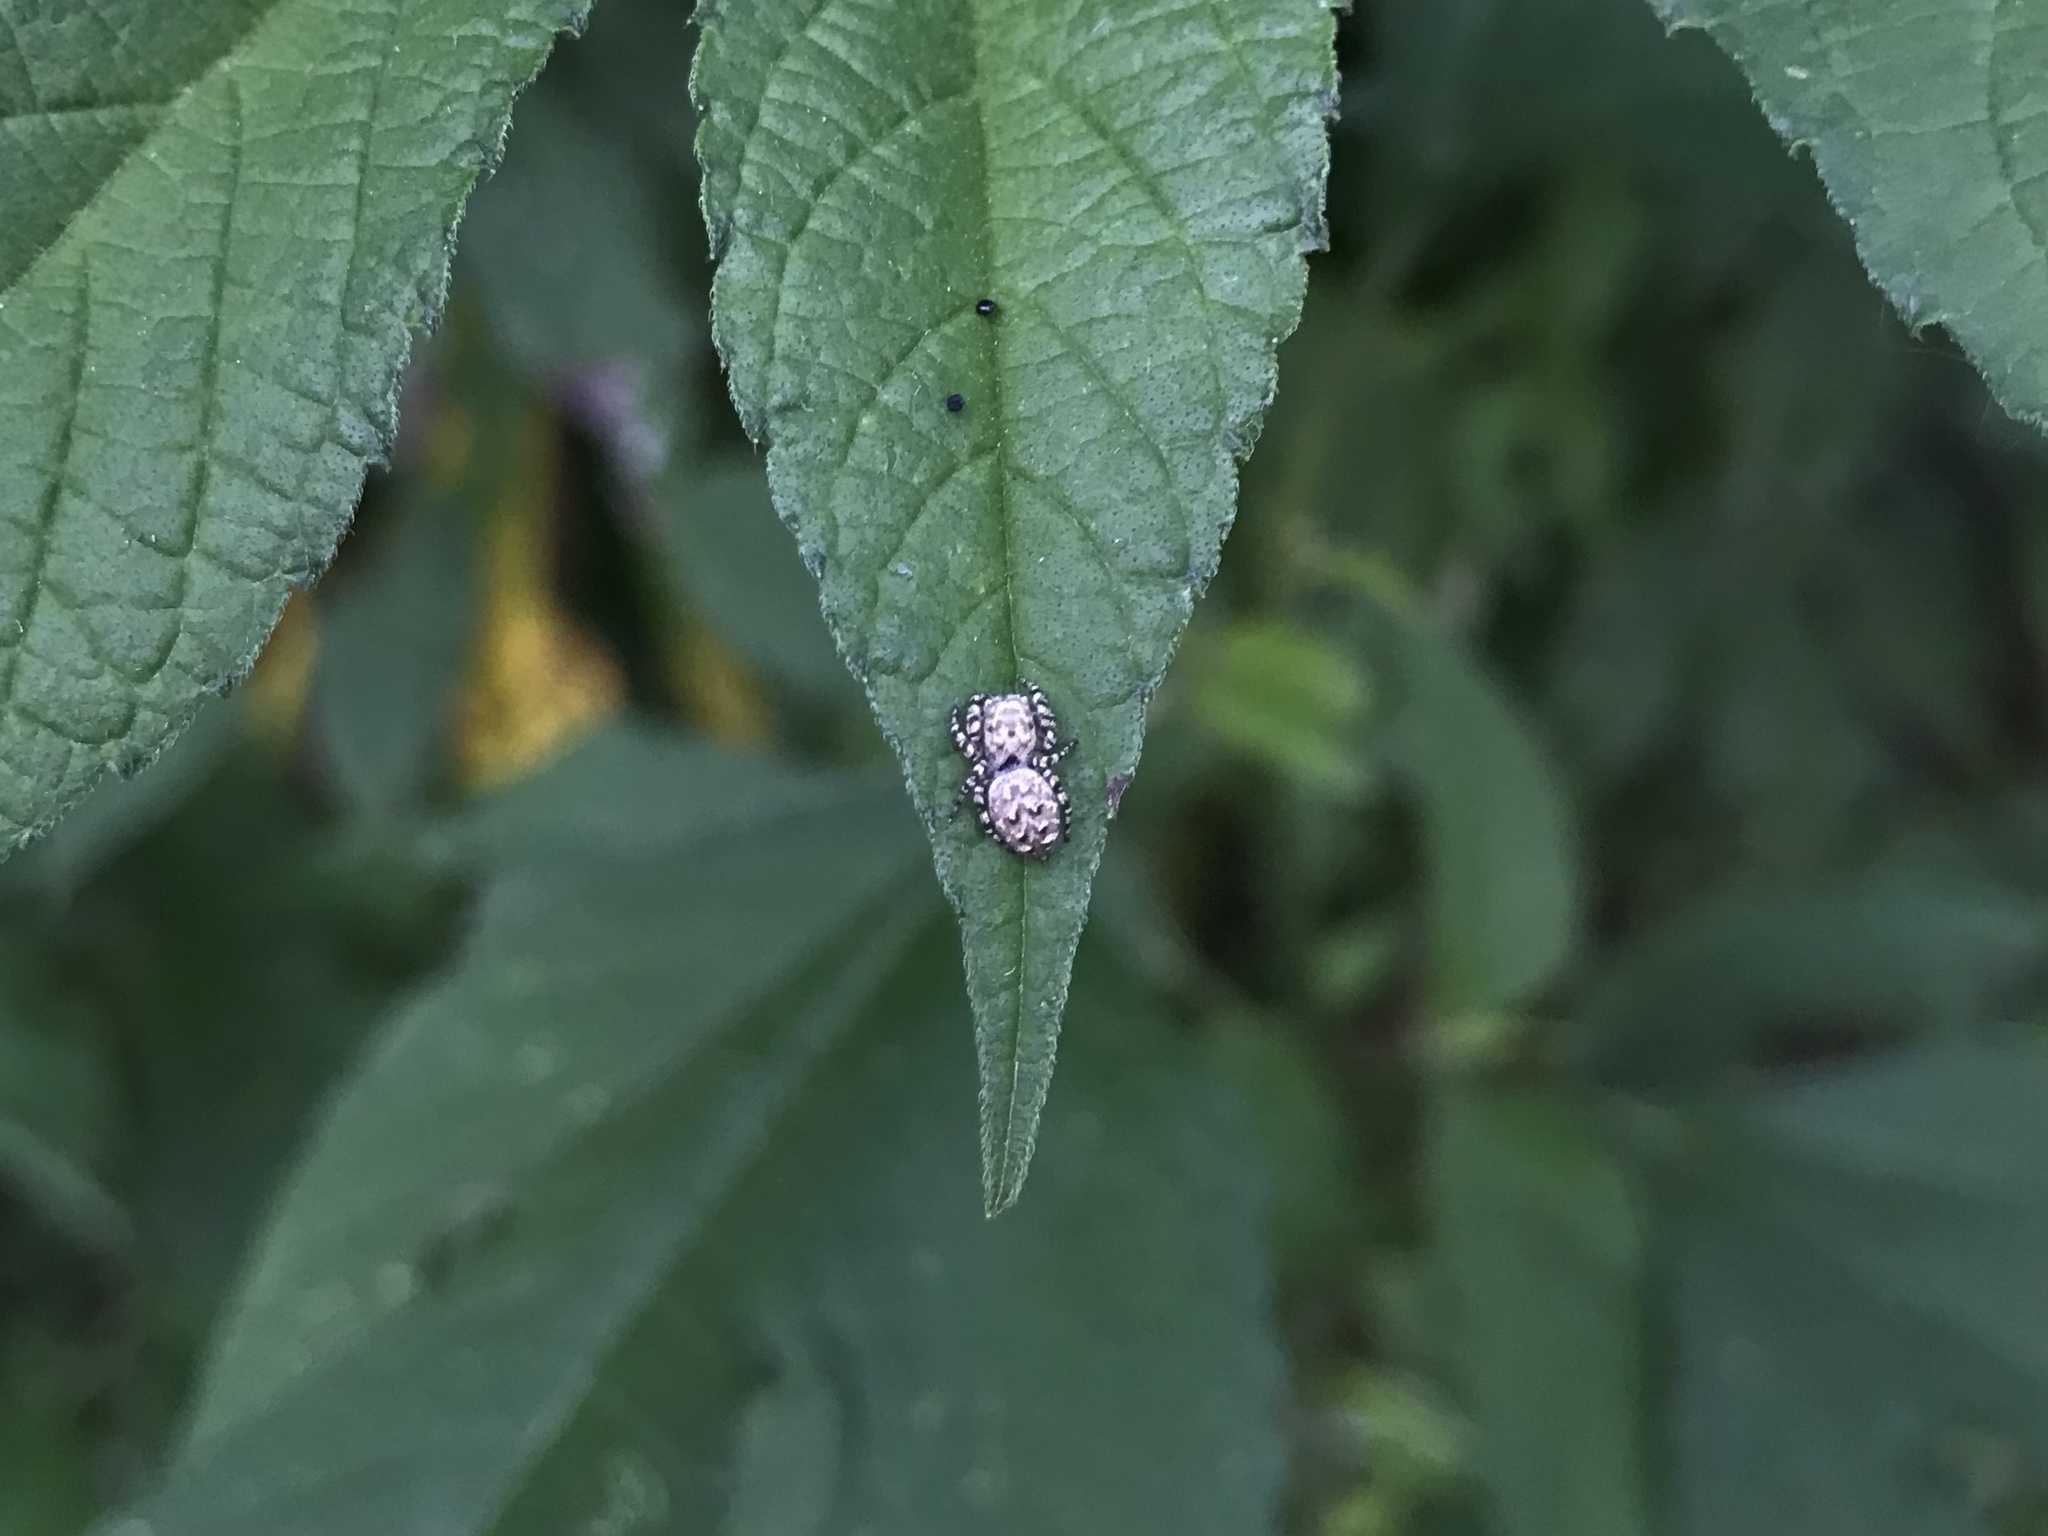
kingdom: Animalia
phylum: Arthropoda
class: Arachnida
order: Araneae
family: Salticidae
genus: Pelegrina
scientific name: Pelegrina galathea
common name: Jumping spiders
